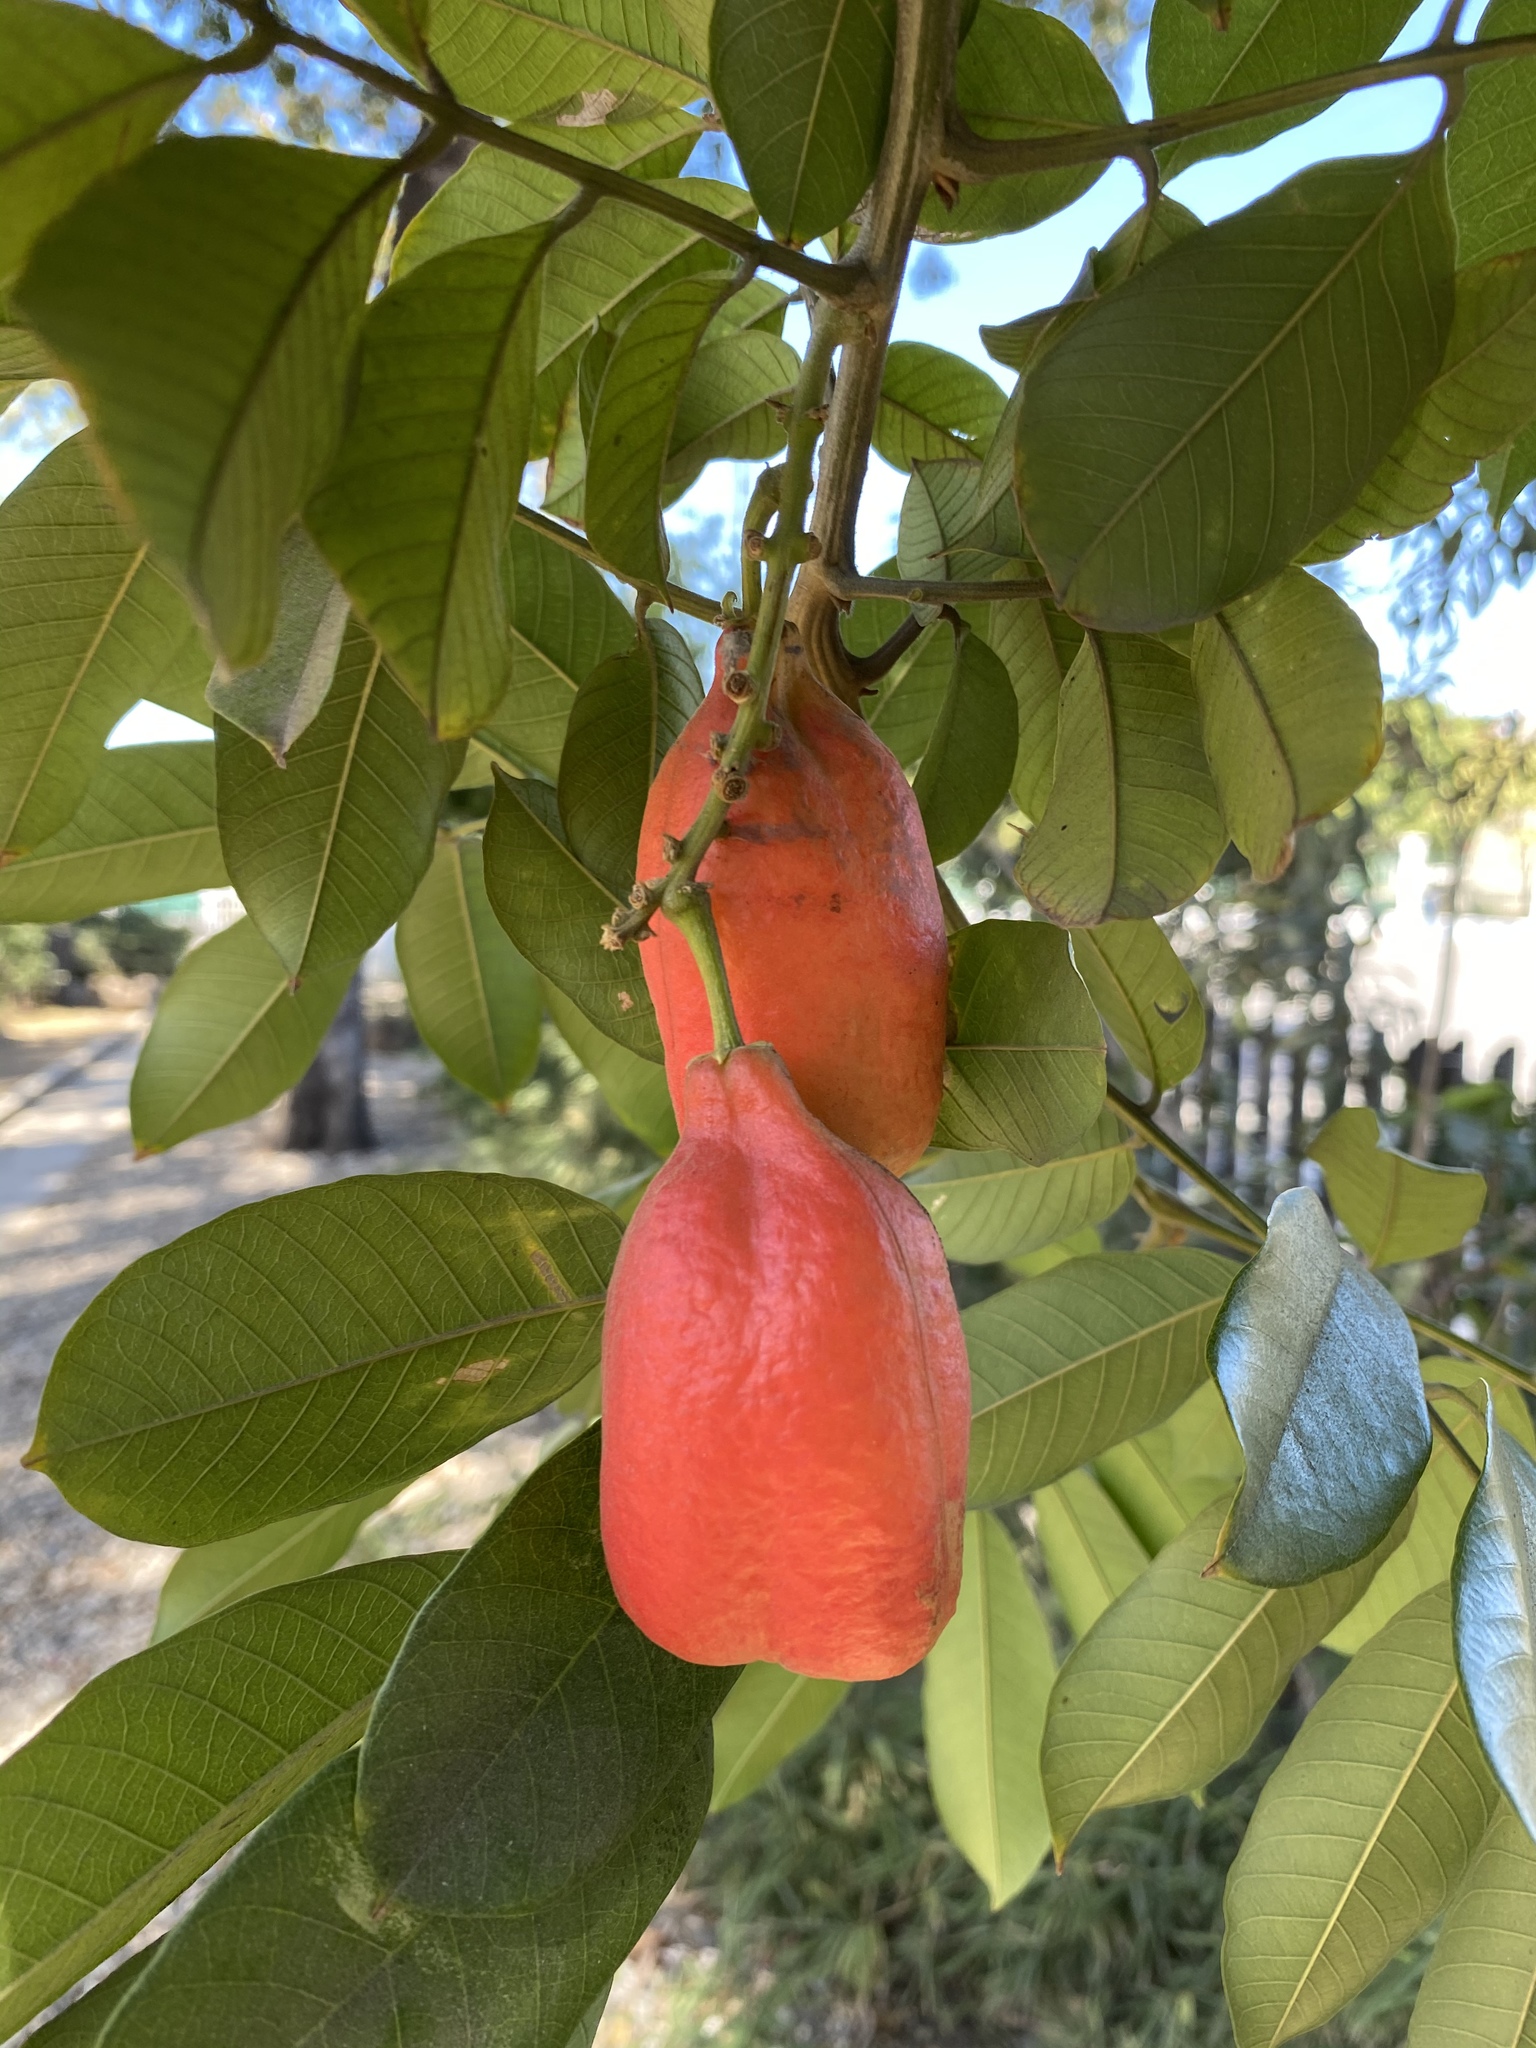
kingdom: Plantae
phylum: Tracheophyta
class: Magnoliopsida
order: Sapindales
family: Sapindaceae
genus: Blighia
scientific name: Blighia sapida
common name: Akee
